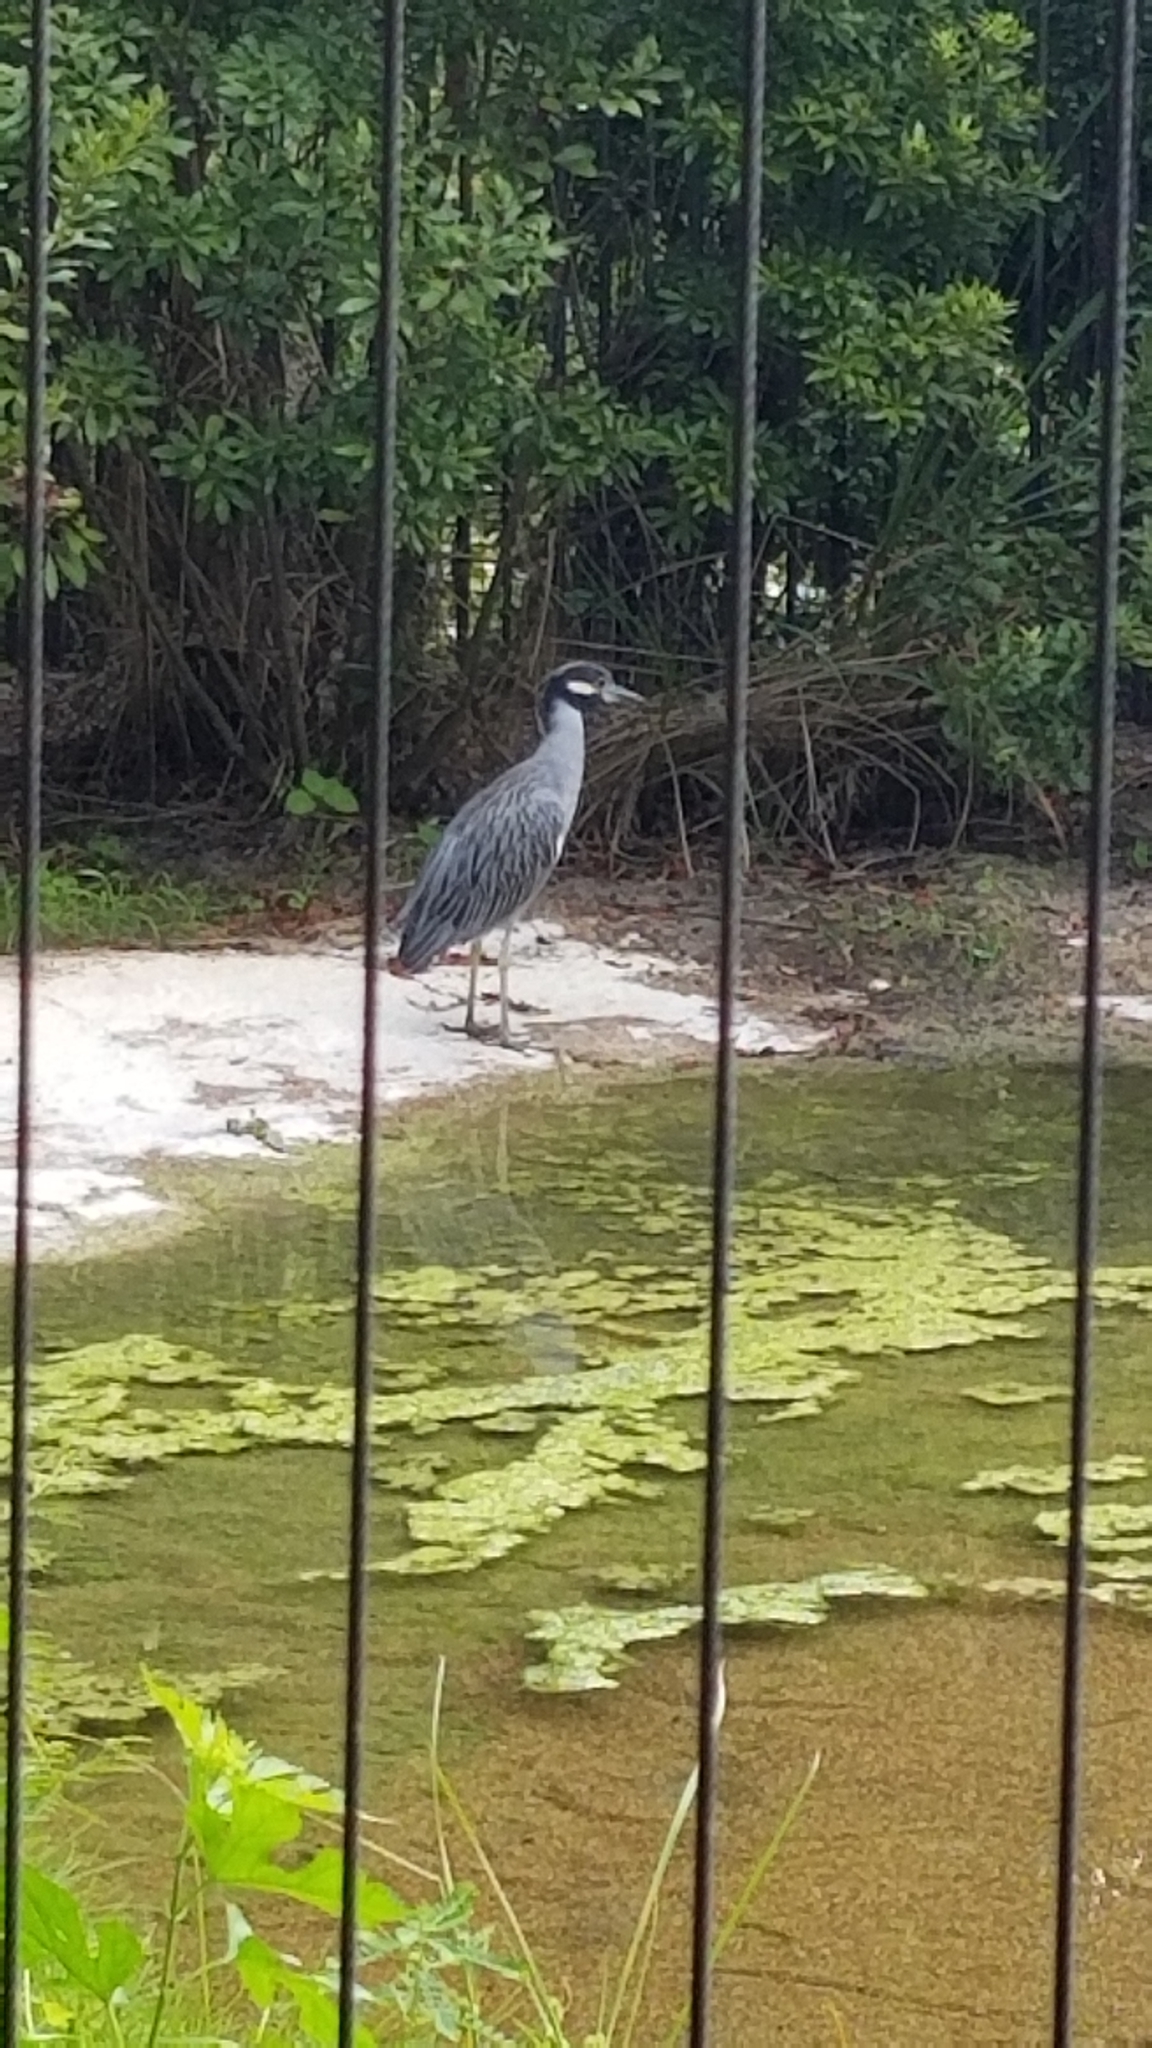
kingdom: Animalia
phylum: Chordata
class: Aves
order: Pelecaniformes
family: Ardeidae
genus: Nyctanassa
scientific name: Nyctanassa violacea
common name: Yellow-crowned night heron
